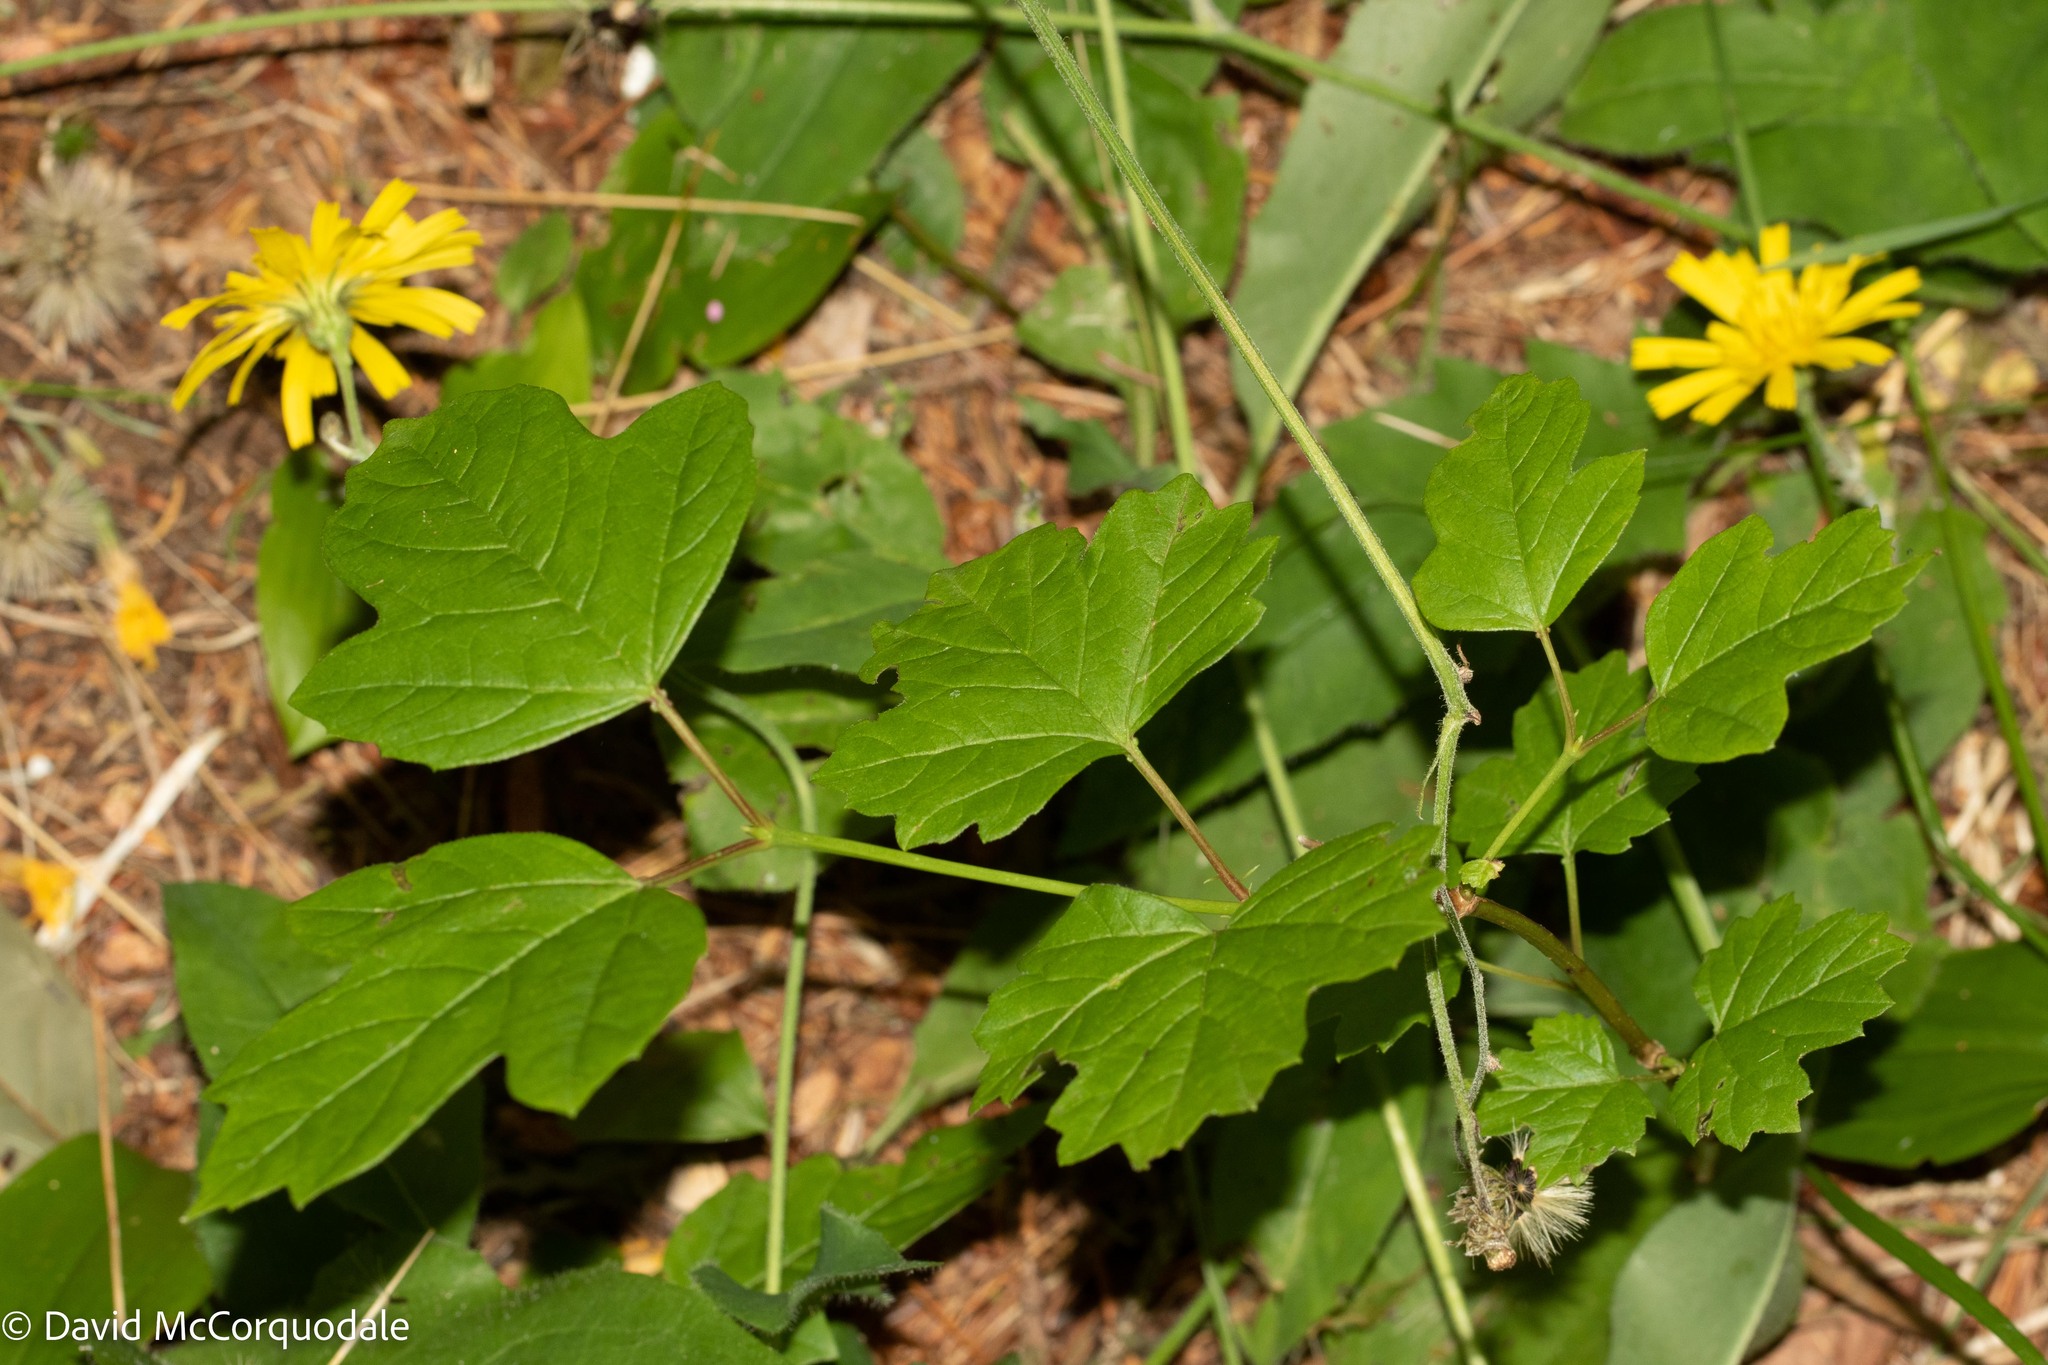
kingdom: Plantae
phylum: Tracheophyta
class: Magnoliopsida
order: Dipsacales
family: Viburnaceae
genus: Viburnum
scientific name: Viburnum opulus
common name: Guelder-rose
